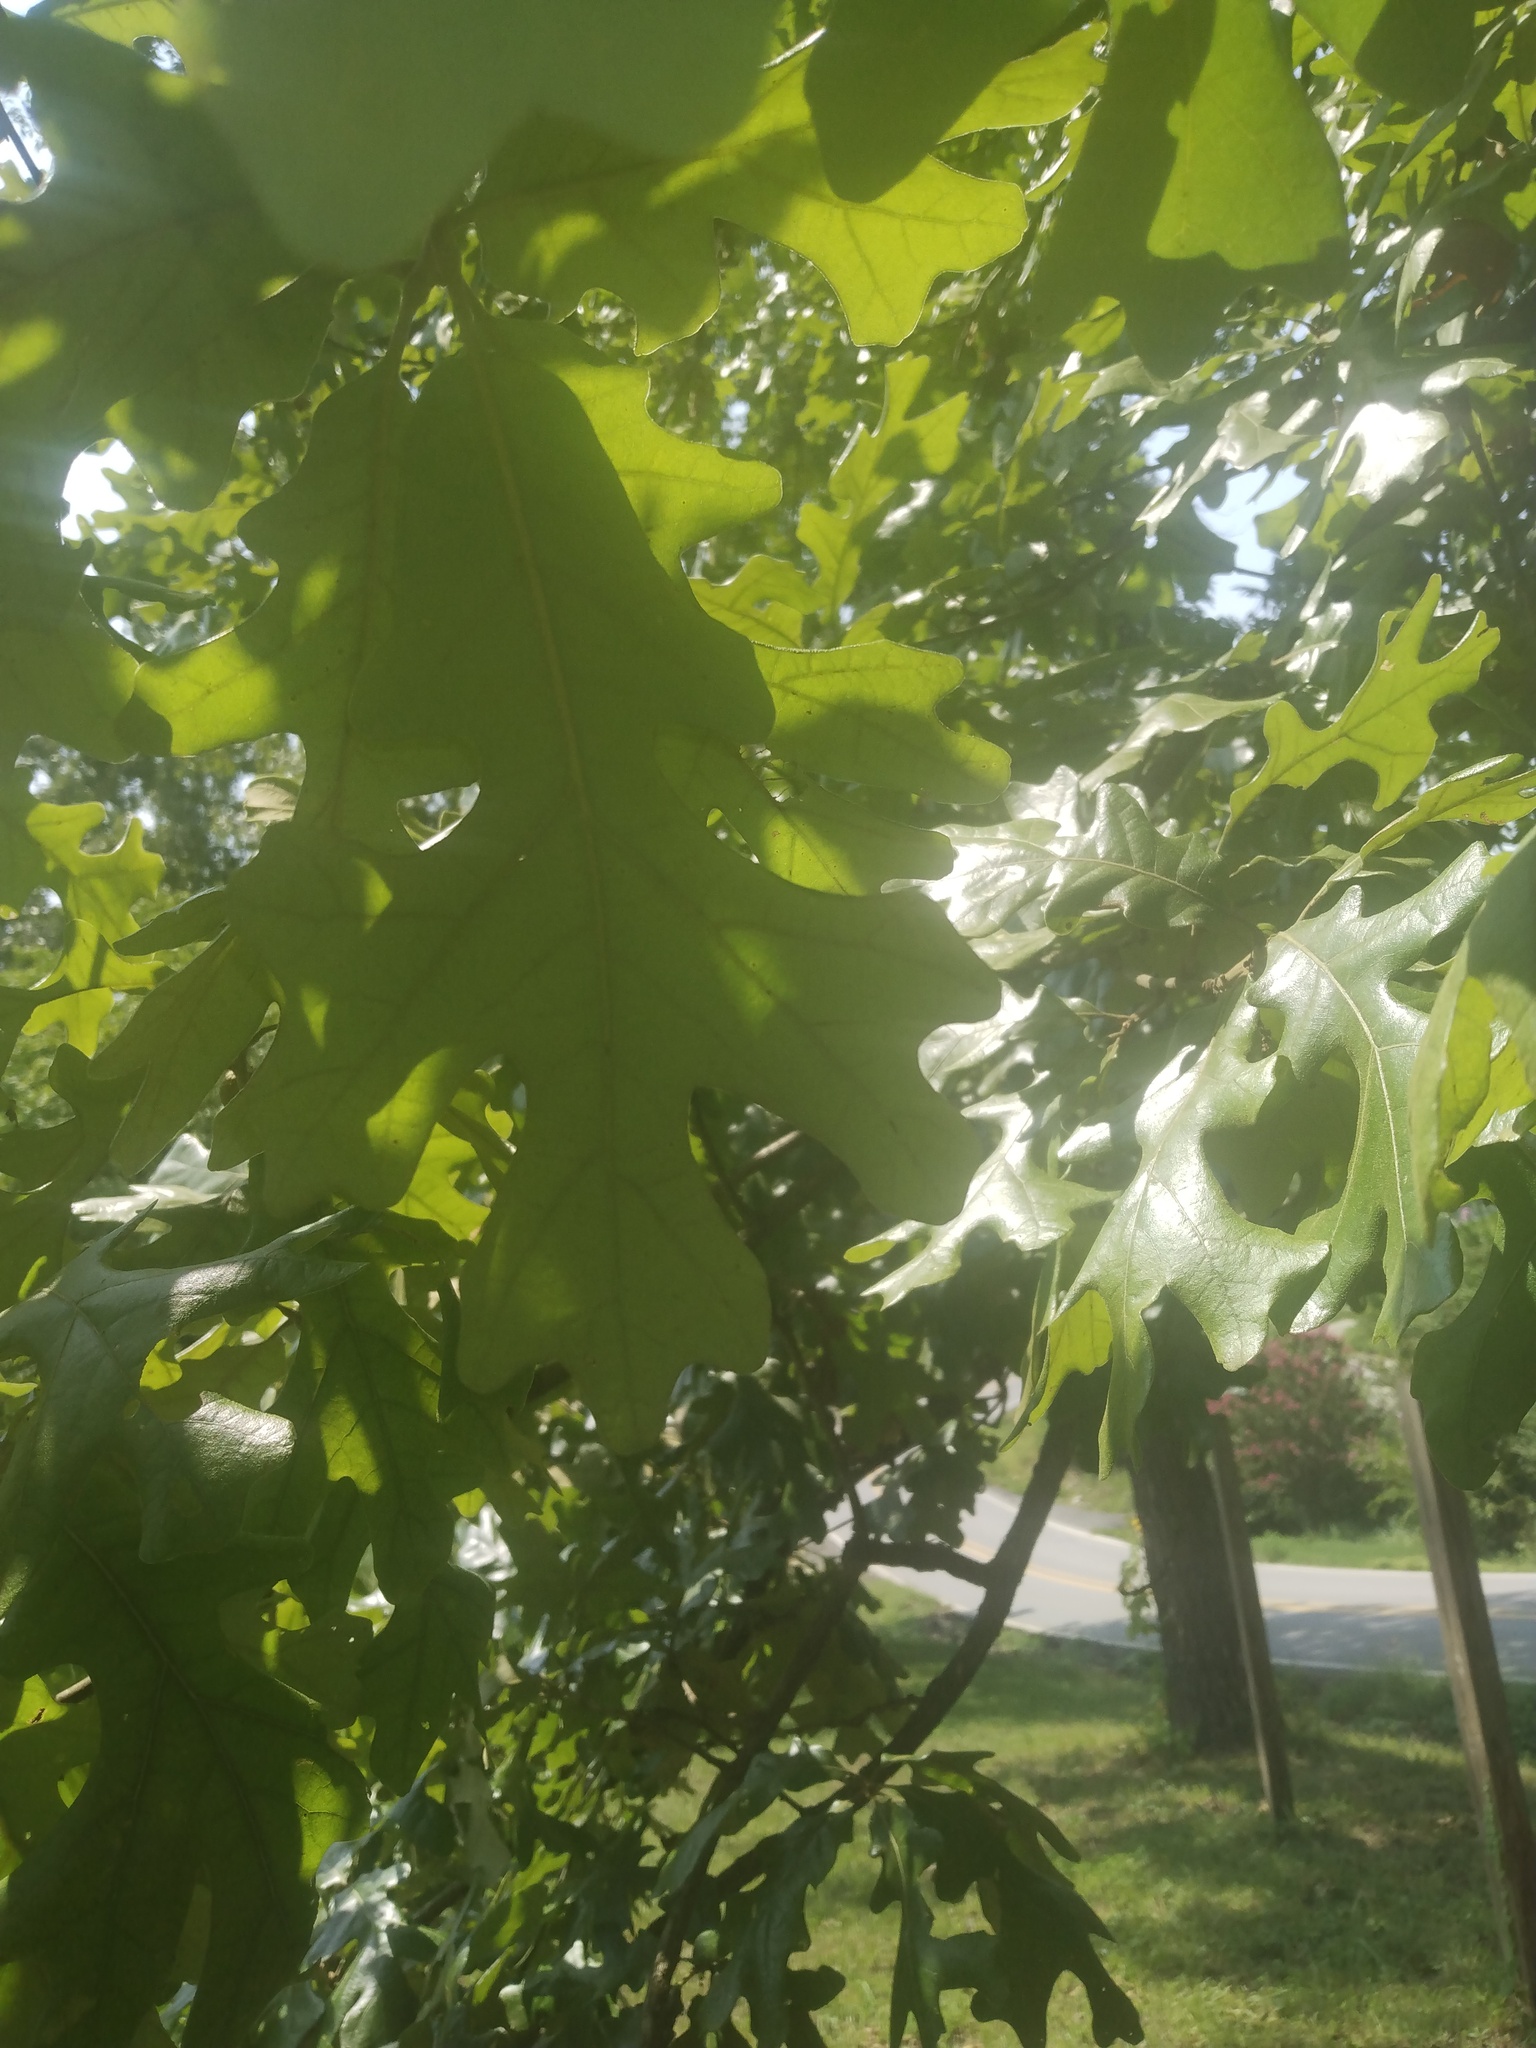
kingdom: Plantae
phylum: Tracheophyta
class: Magnoliopsida
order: Fagales
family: Fagaceae
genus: Quercus
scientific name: Quercus stellata
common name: Post oak
